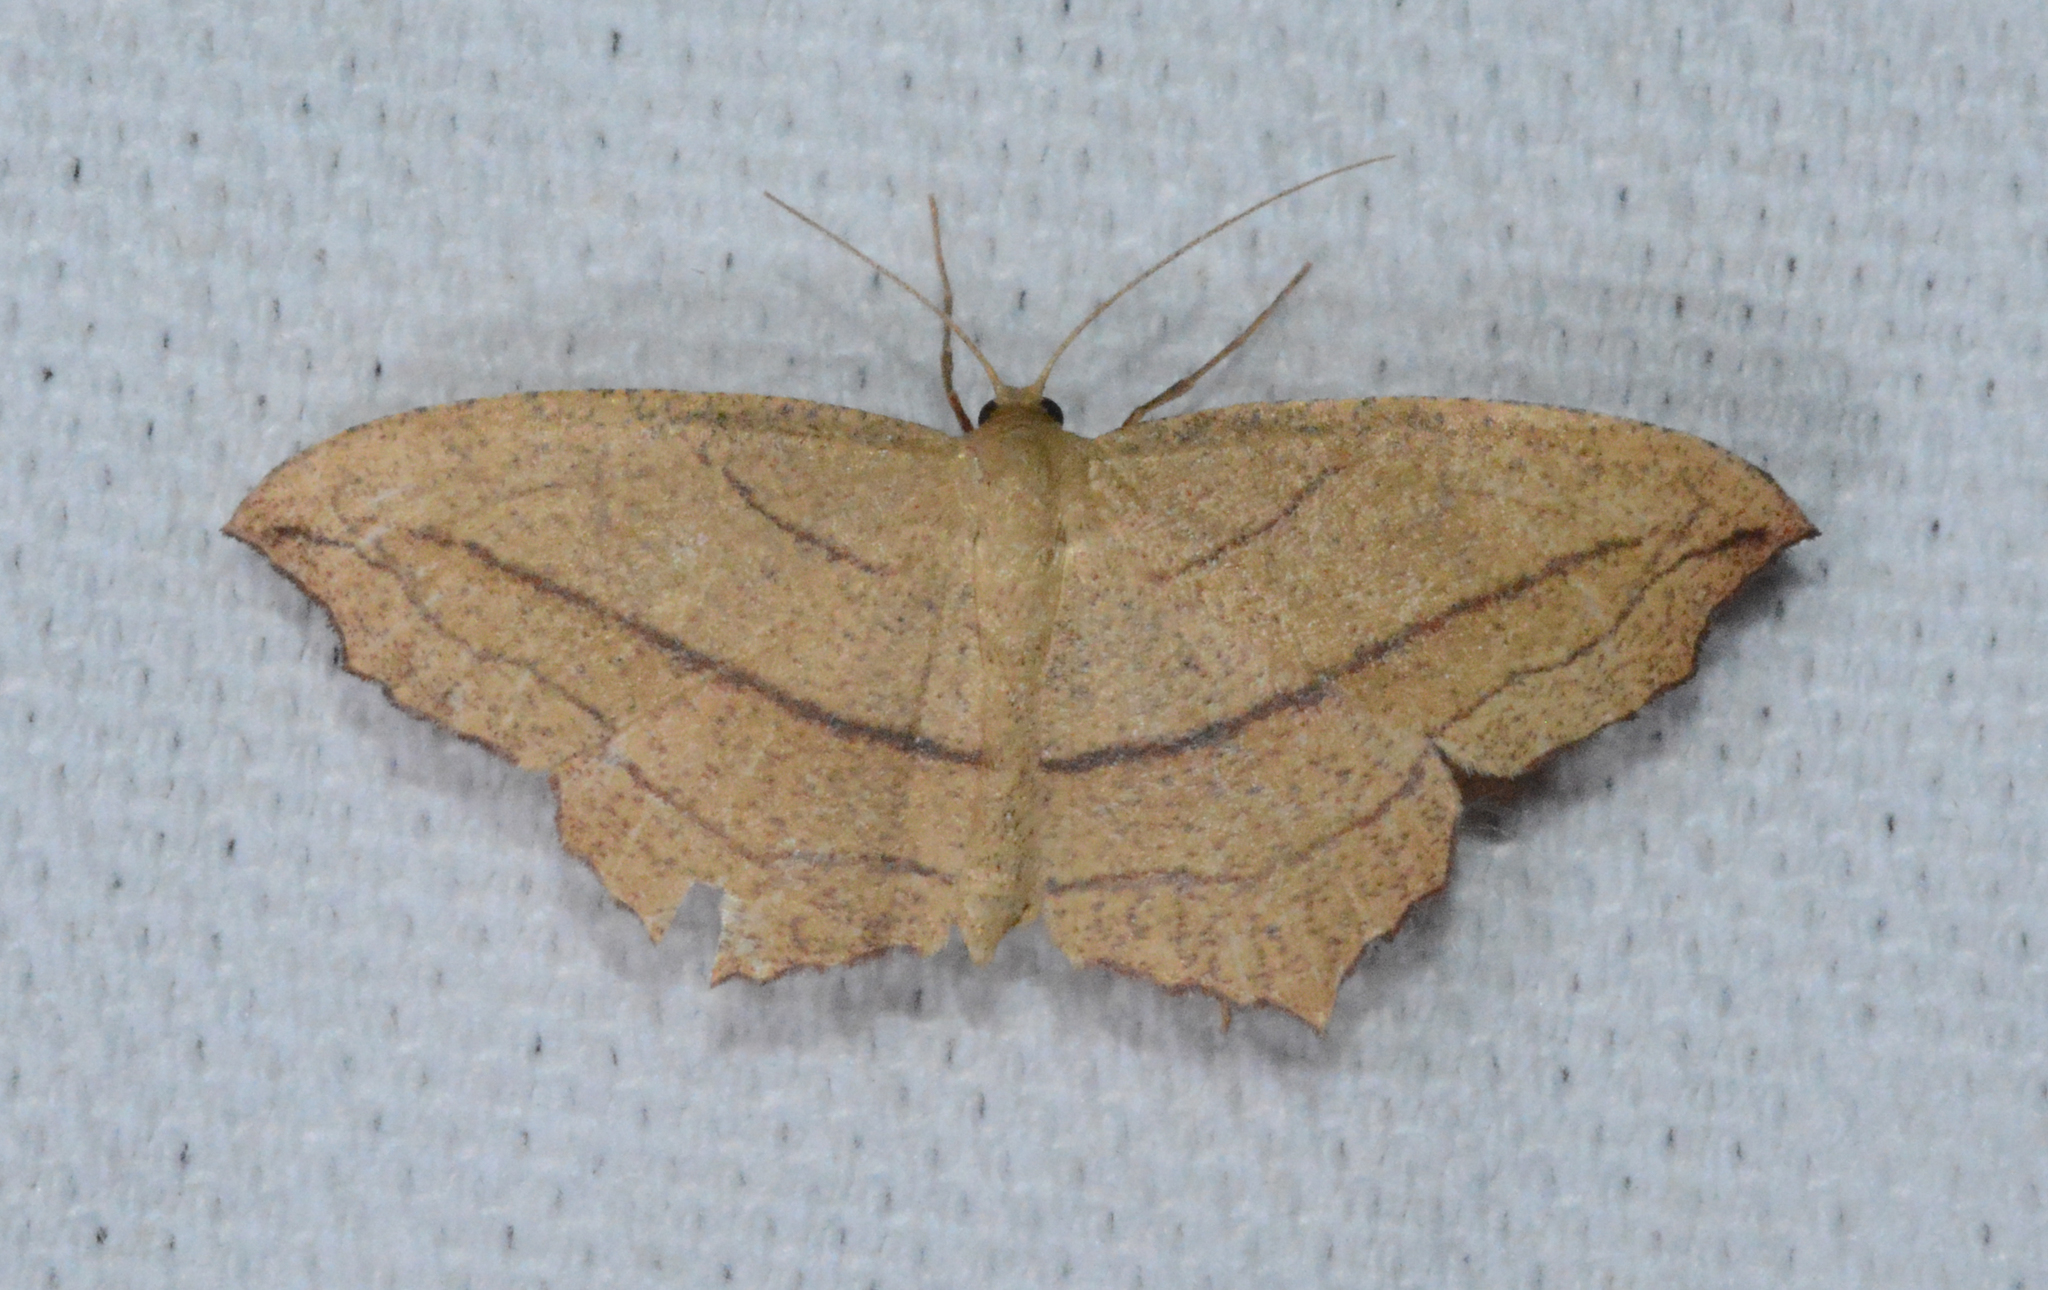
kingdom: Animalia
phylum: Arthropoda
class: Insecta
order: Lepidoptera
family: Geometridae
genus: Timandra
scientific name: Timandra amaturaria
